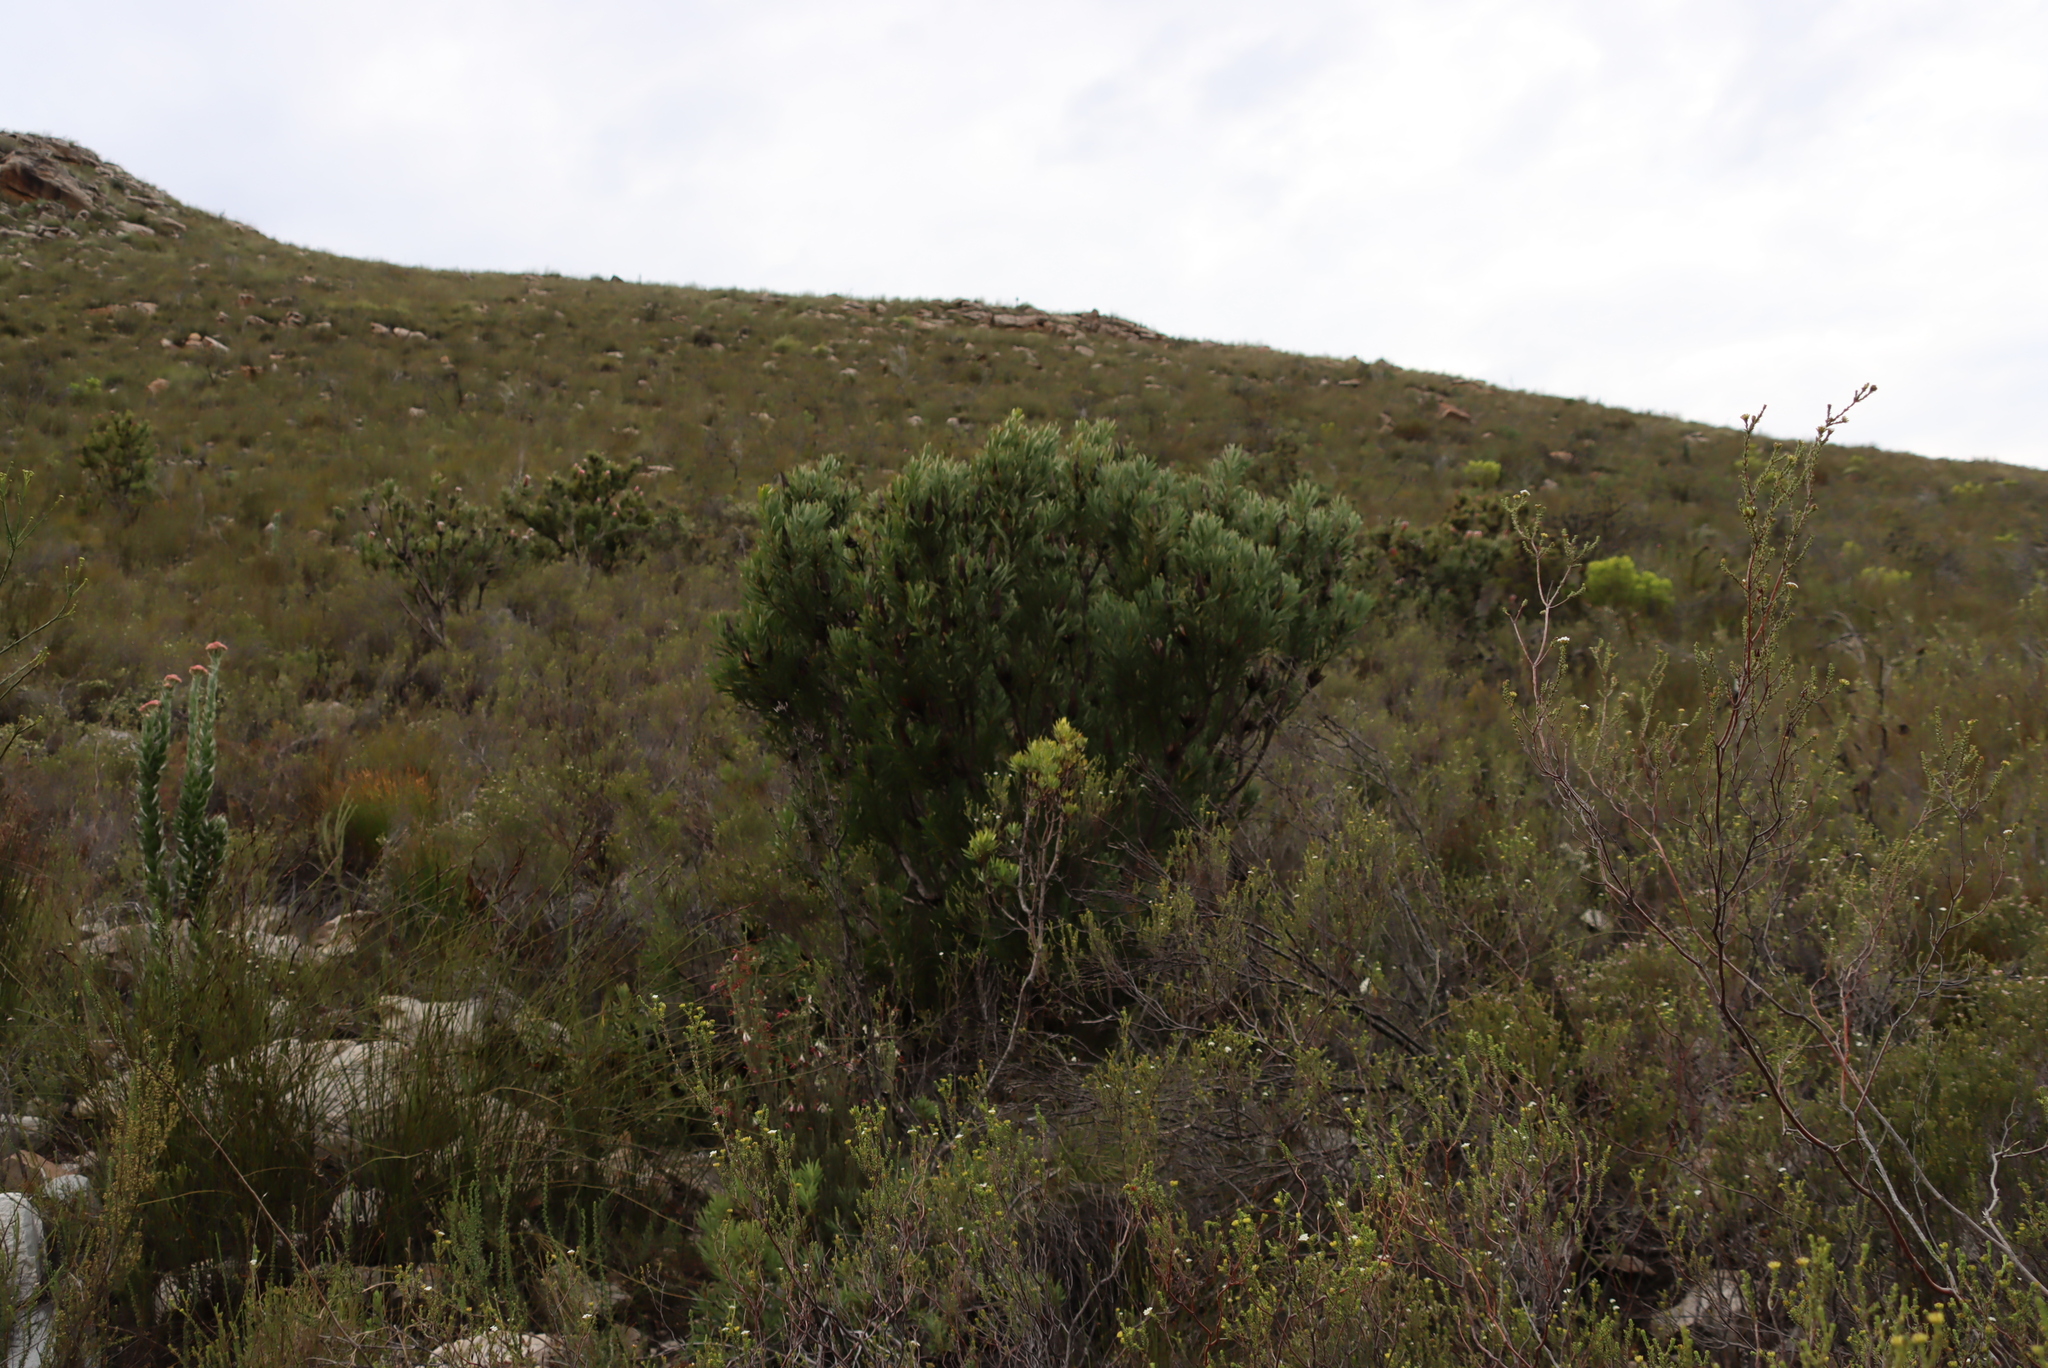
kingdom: Plantae
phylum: Tracheophyta
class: Magnoliopsida
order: Proteales
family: Proteaceae
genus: Protea
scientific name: Protea neriifolia
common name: Blue sugarbush
